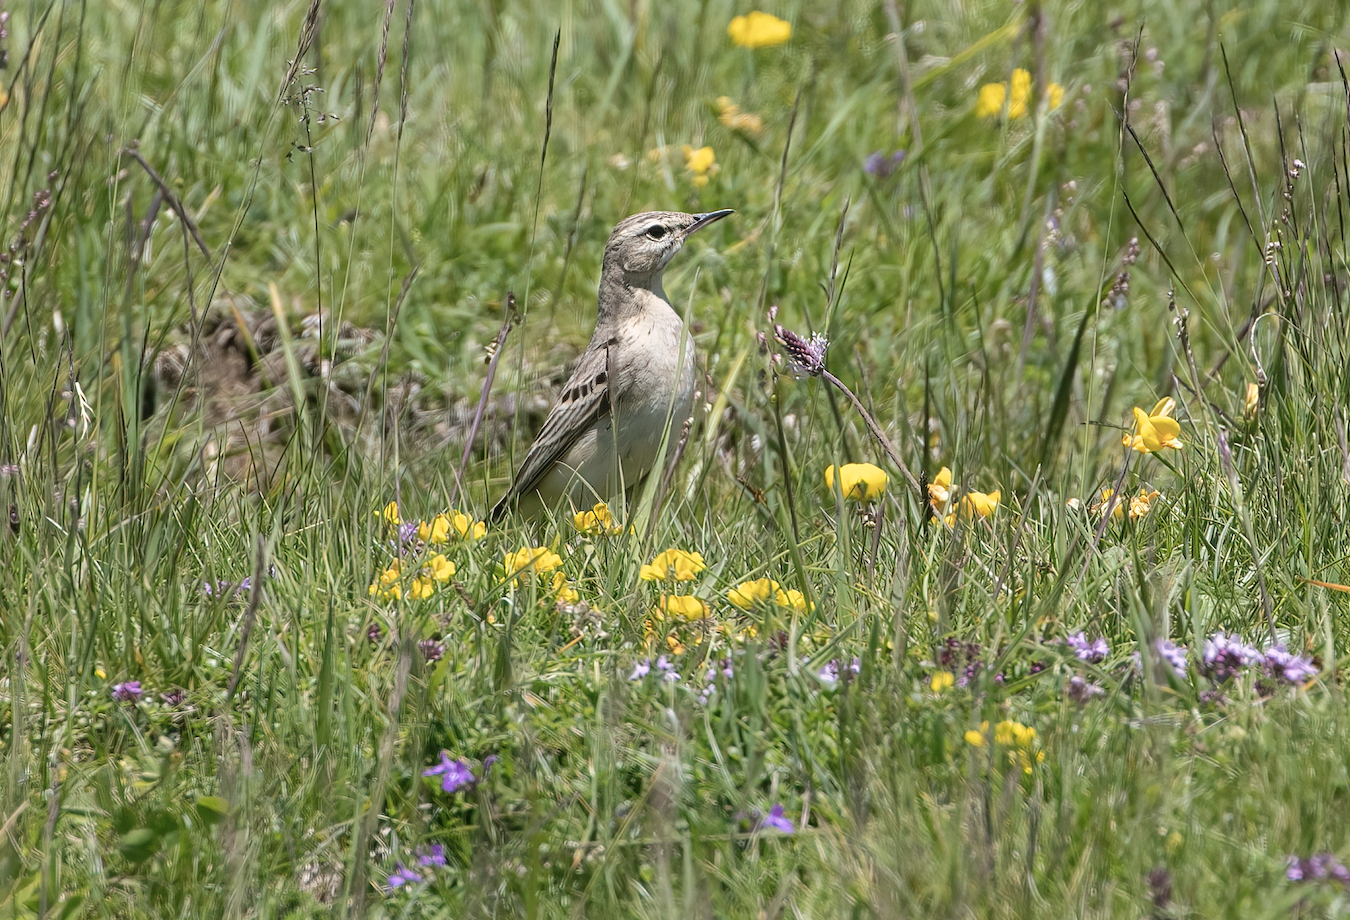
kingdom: Animalia
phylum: Chordata
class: Aves
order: Passeriformes
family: Motacillidae
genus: Anthus
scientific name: Anthus campestris
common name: Tawny pipit
